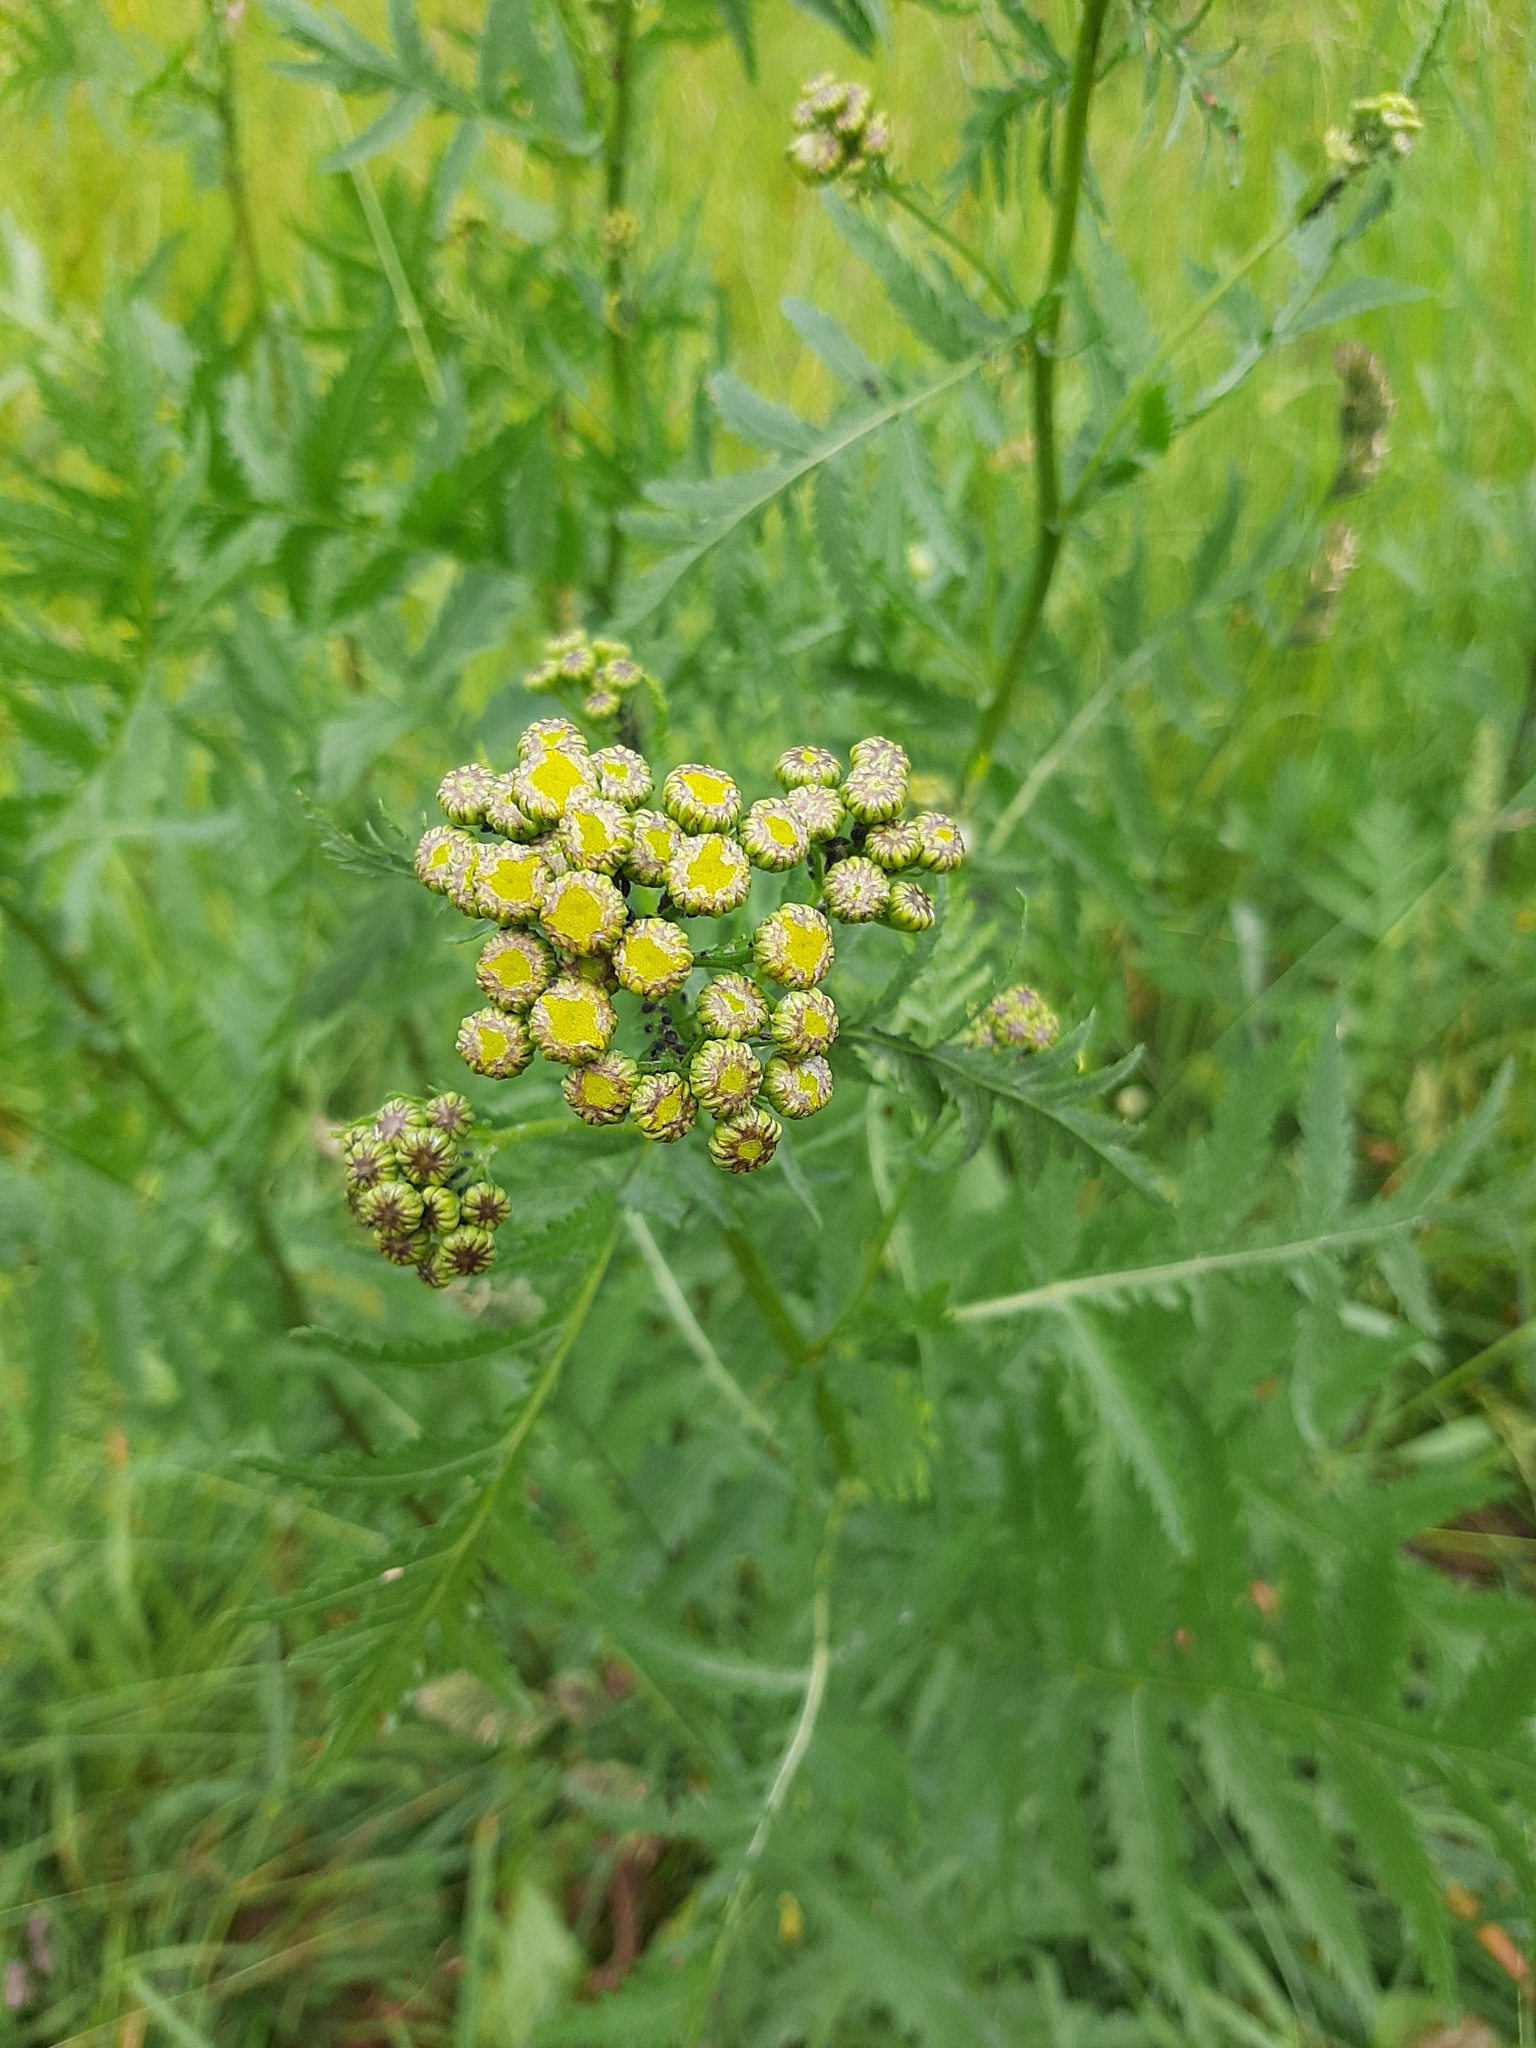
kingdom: Plantae
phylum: Tracheophyta
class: Magnoliopsida
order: Asterales
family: Asteraceae
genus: Tanacetum
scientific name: Tanacetum vulgare
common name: Common tansy
